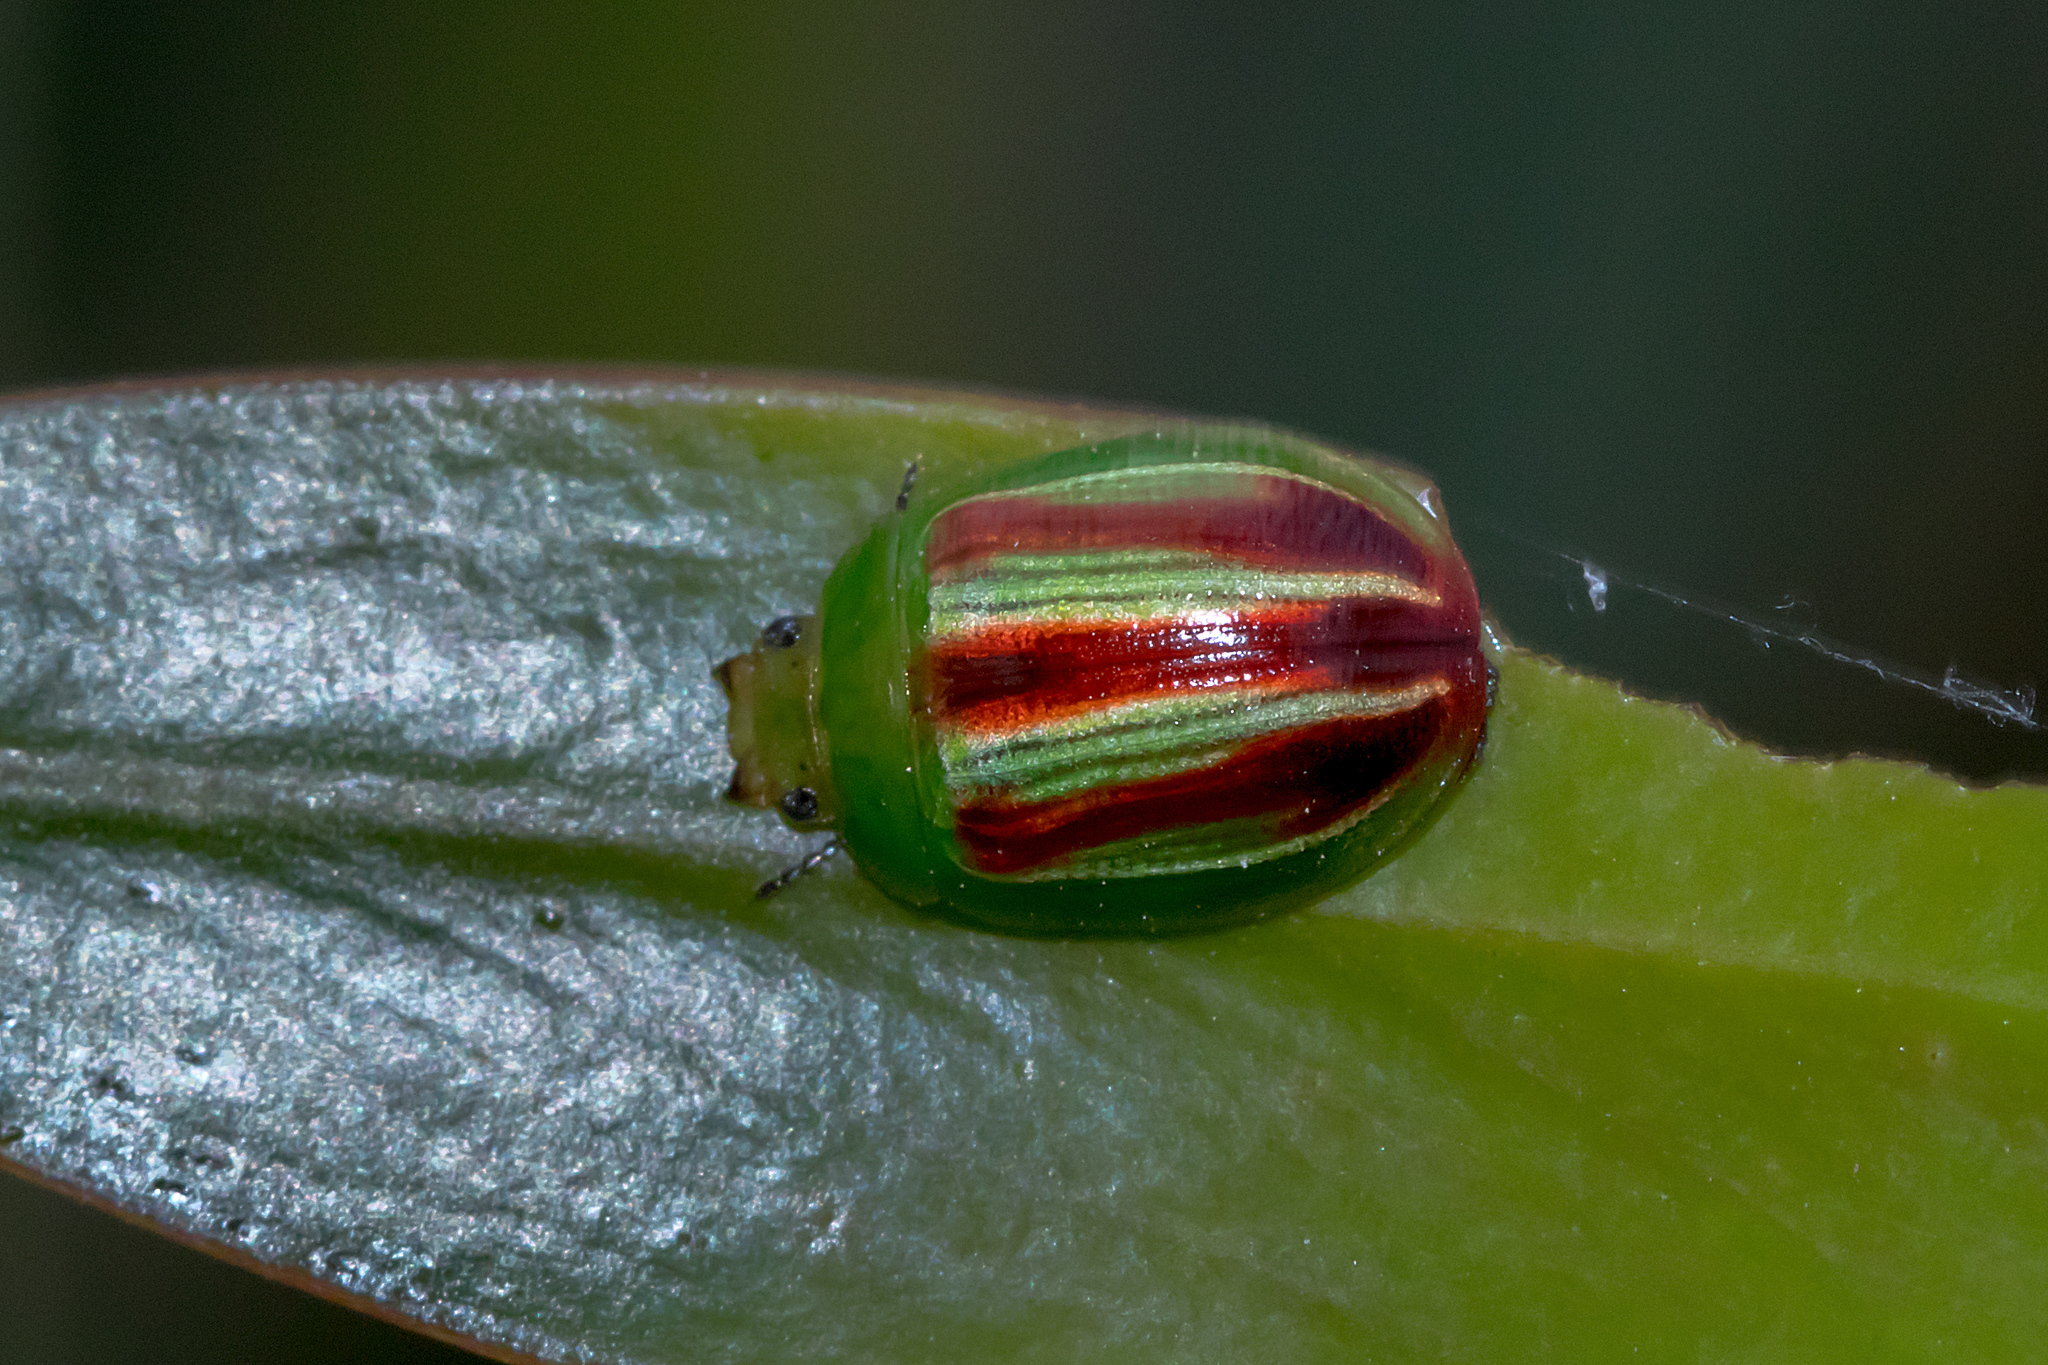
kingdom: Animalia
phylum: Arthropoda
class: Insecta
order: Coleoptera
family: Chrysomelidae
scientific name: Chrysomelidae
